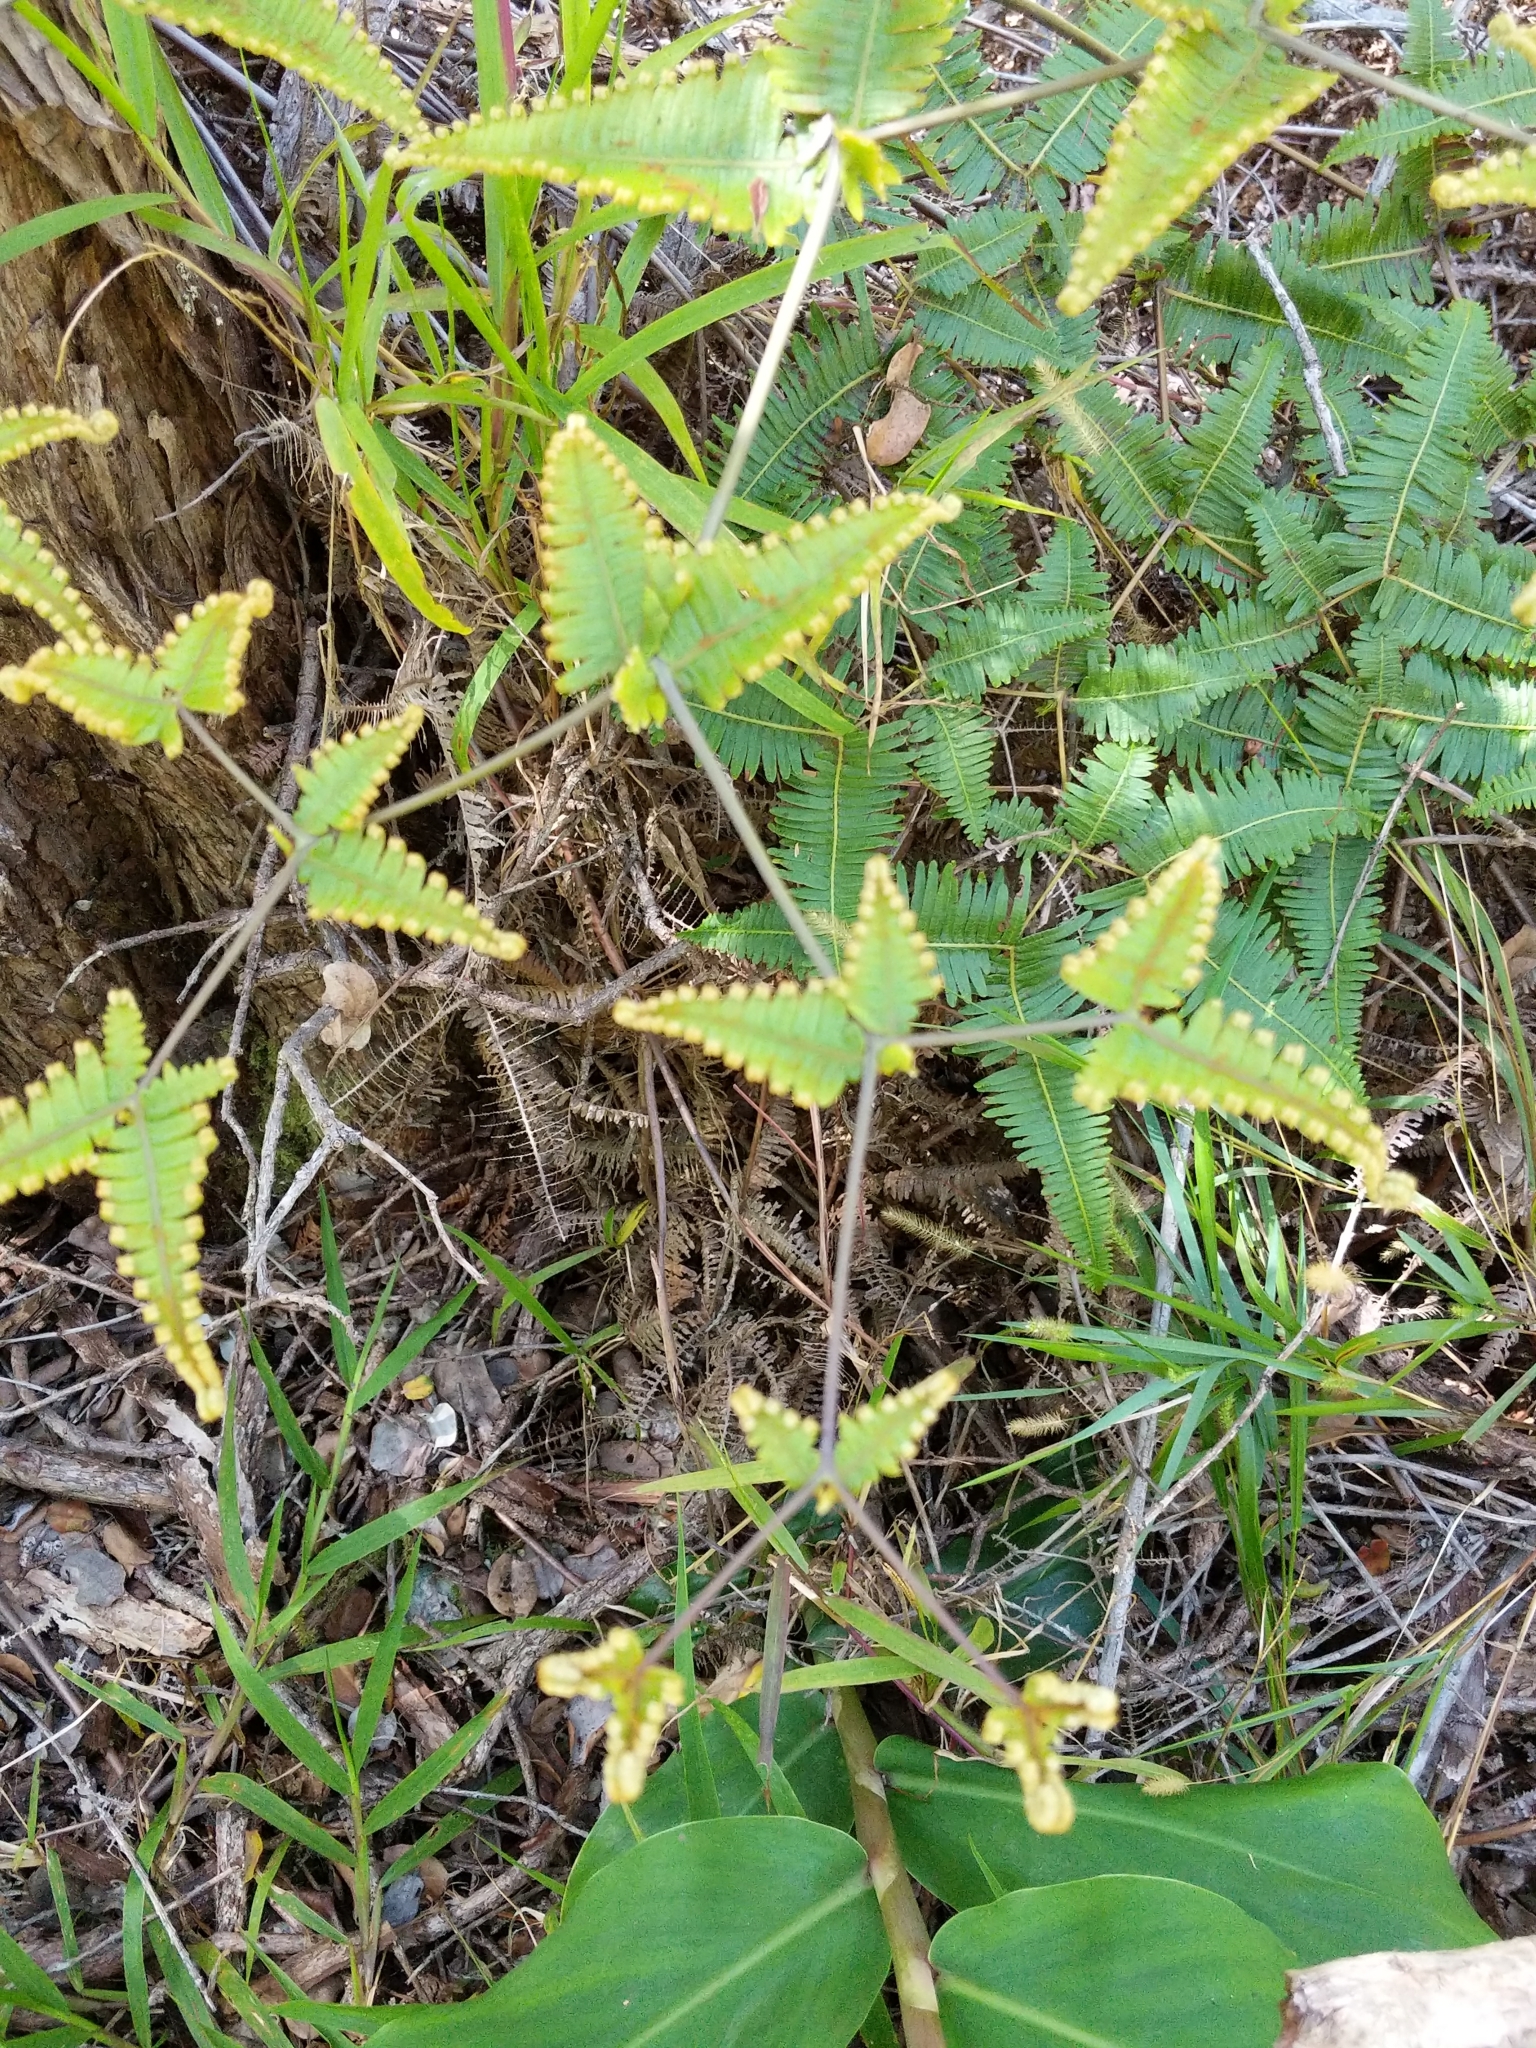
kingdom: Plantae
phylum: Tracheophyta
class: Polypodiopsida
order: Gleicheniales
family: Gleicheniaceae
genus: Dicranopteris
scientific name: Dicranopteris linearis
